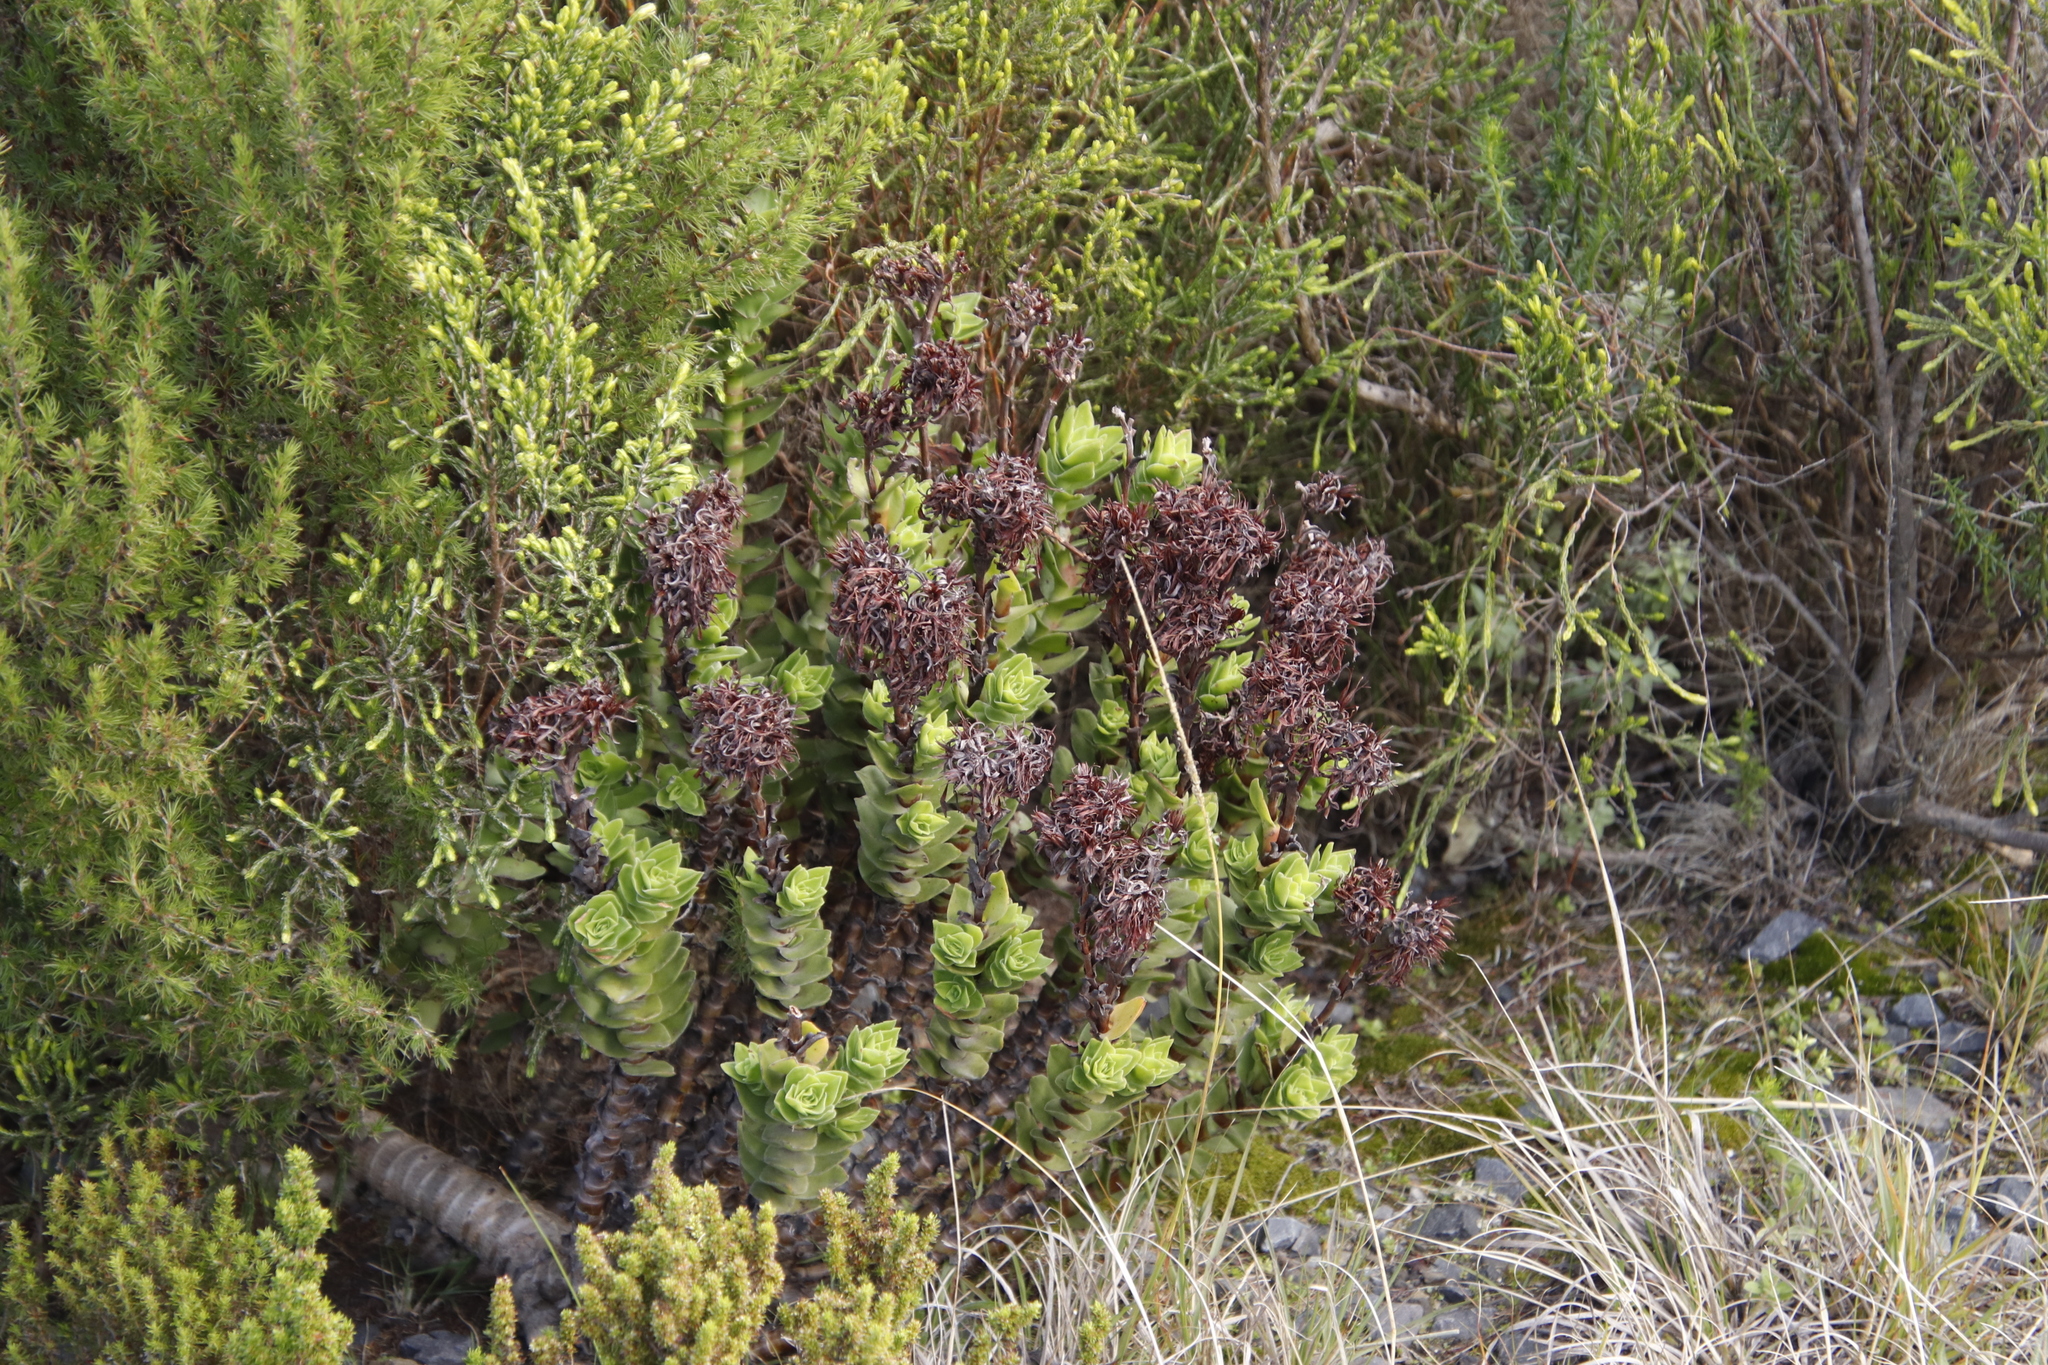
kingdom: Plantae
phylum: Tracheophyta
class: Magnoliopsida
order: Saxifragales
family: Crassulaceae
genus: Crassula
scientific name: Crassula coccinea
